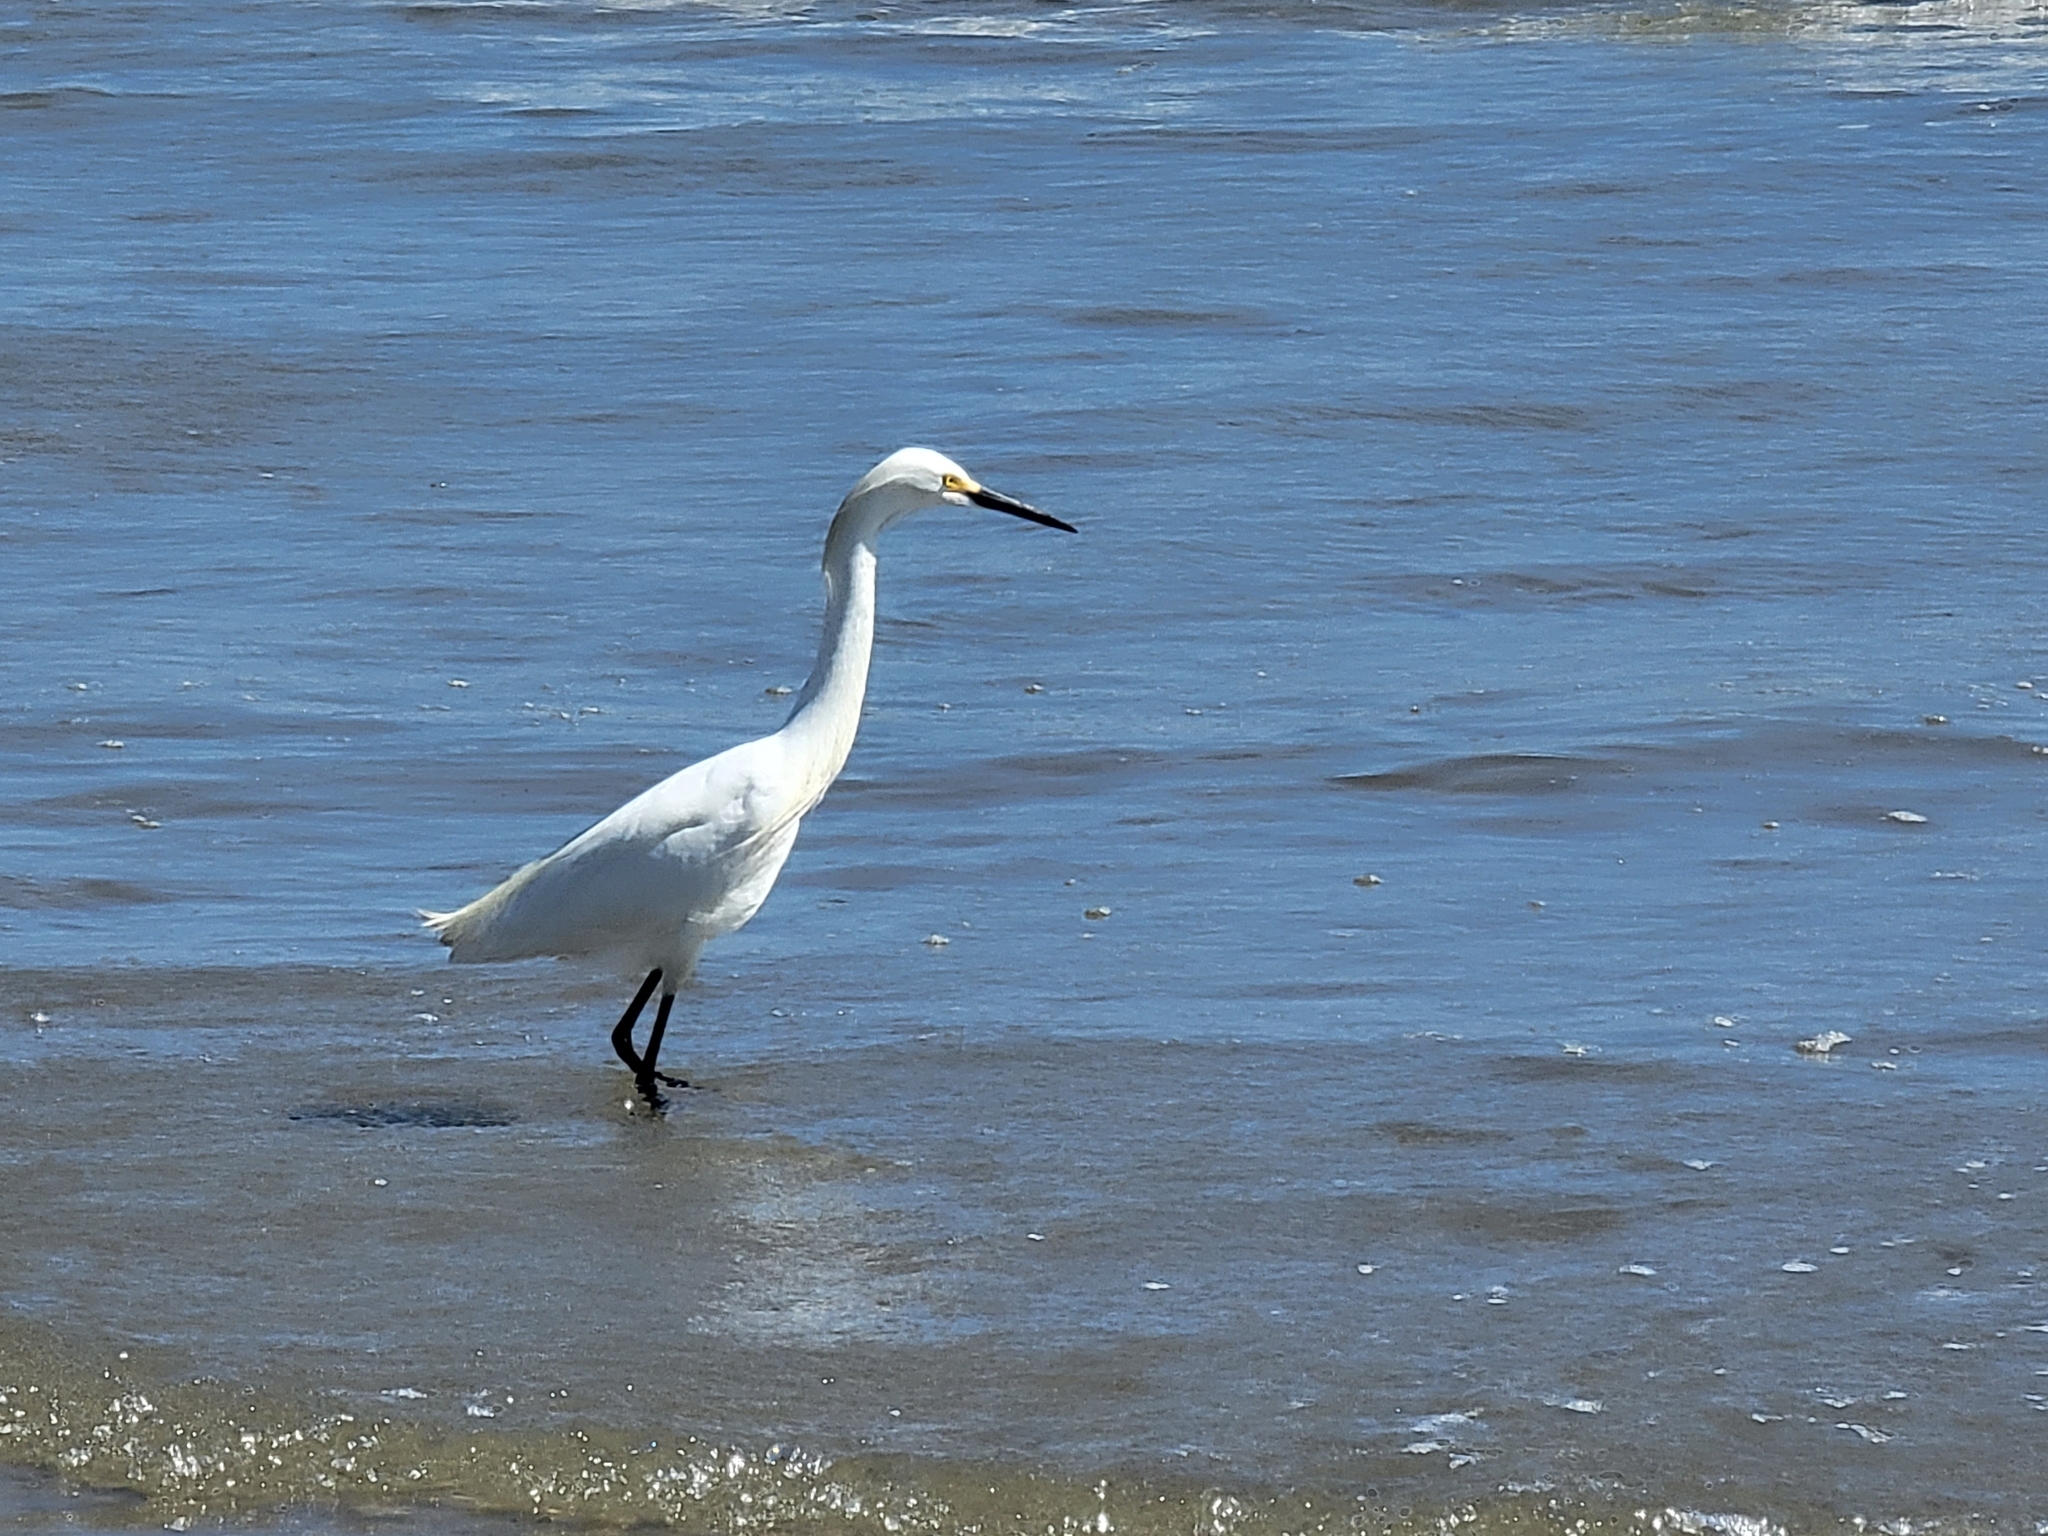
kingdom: Animalia
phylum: Chordata
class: Aves
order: Pelecaniformes
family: Ardeidae
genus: Egretta
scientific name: Egretta thula
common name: Snowy egret
